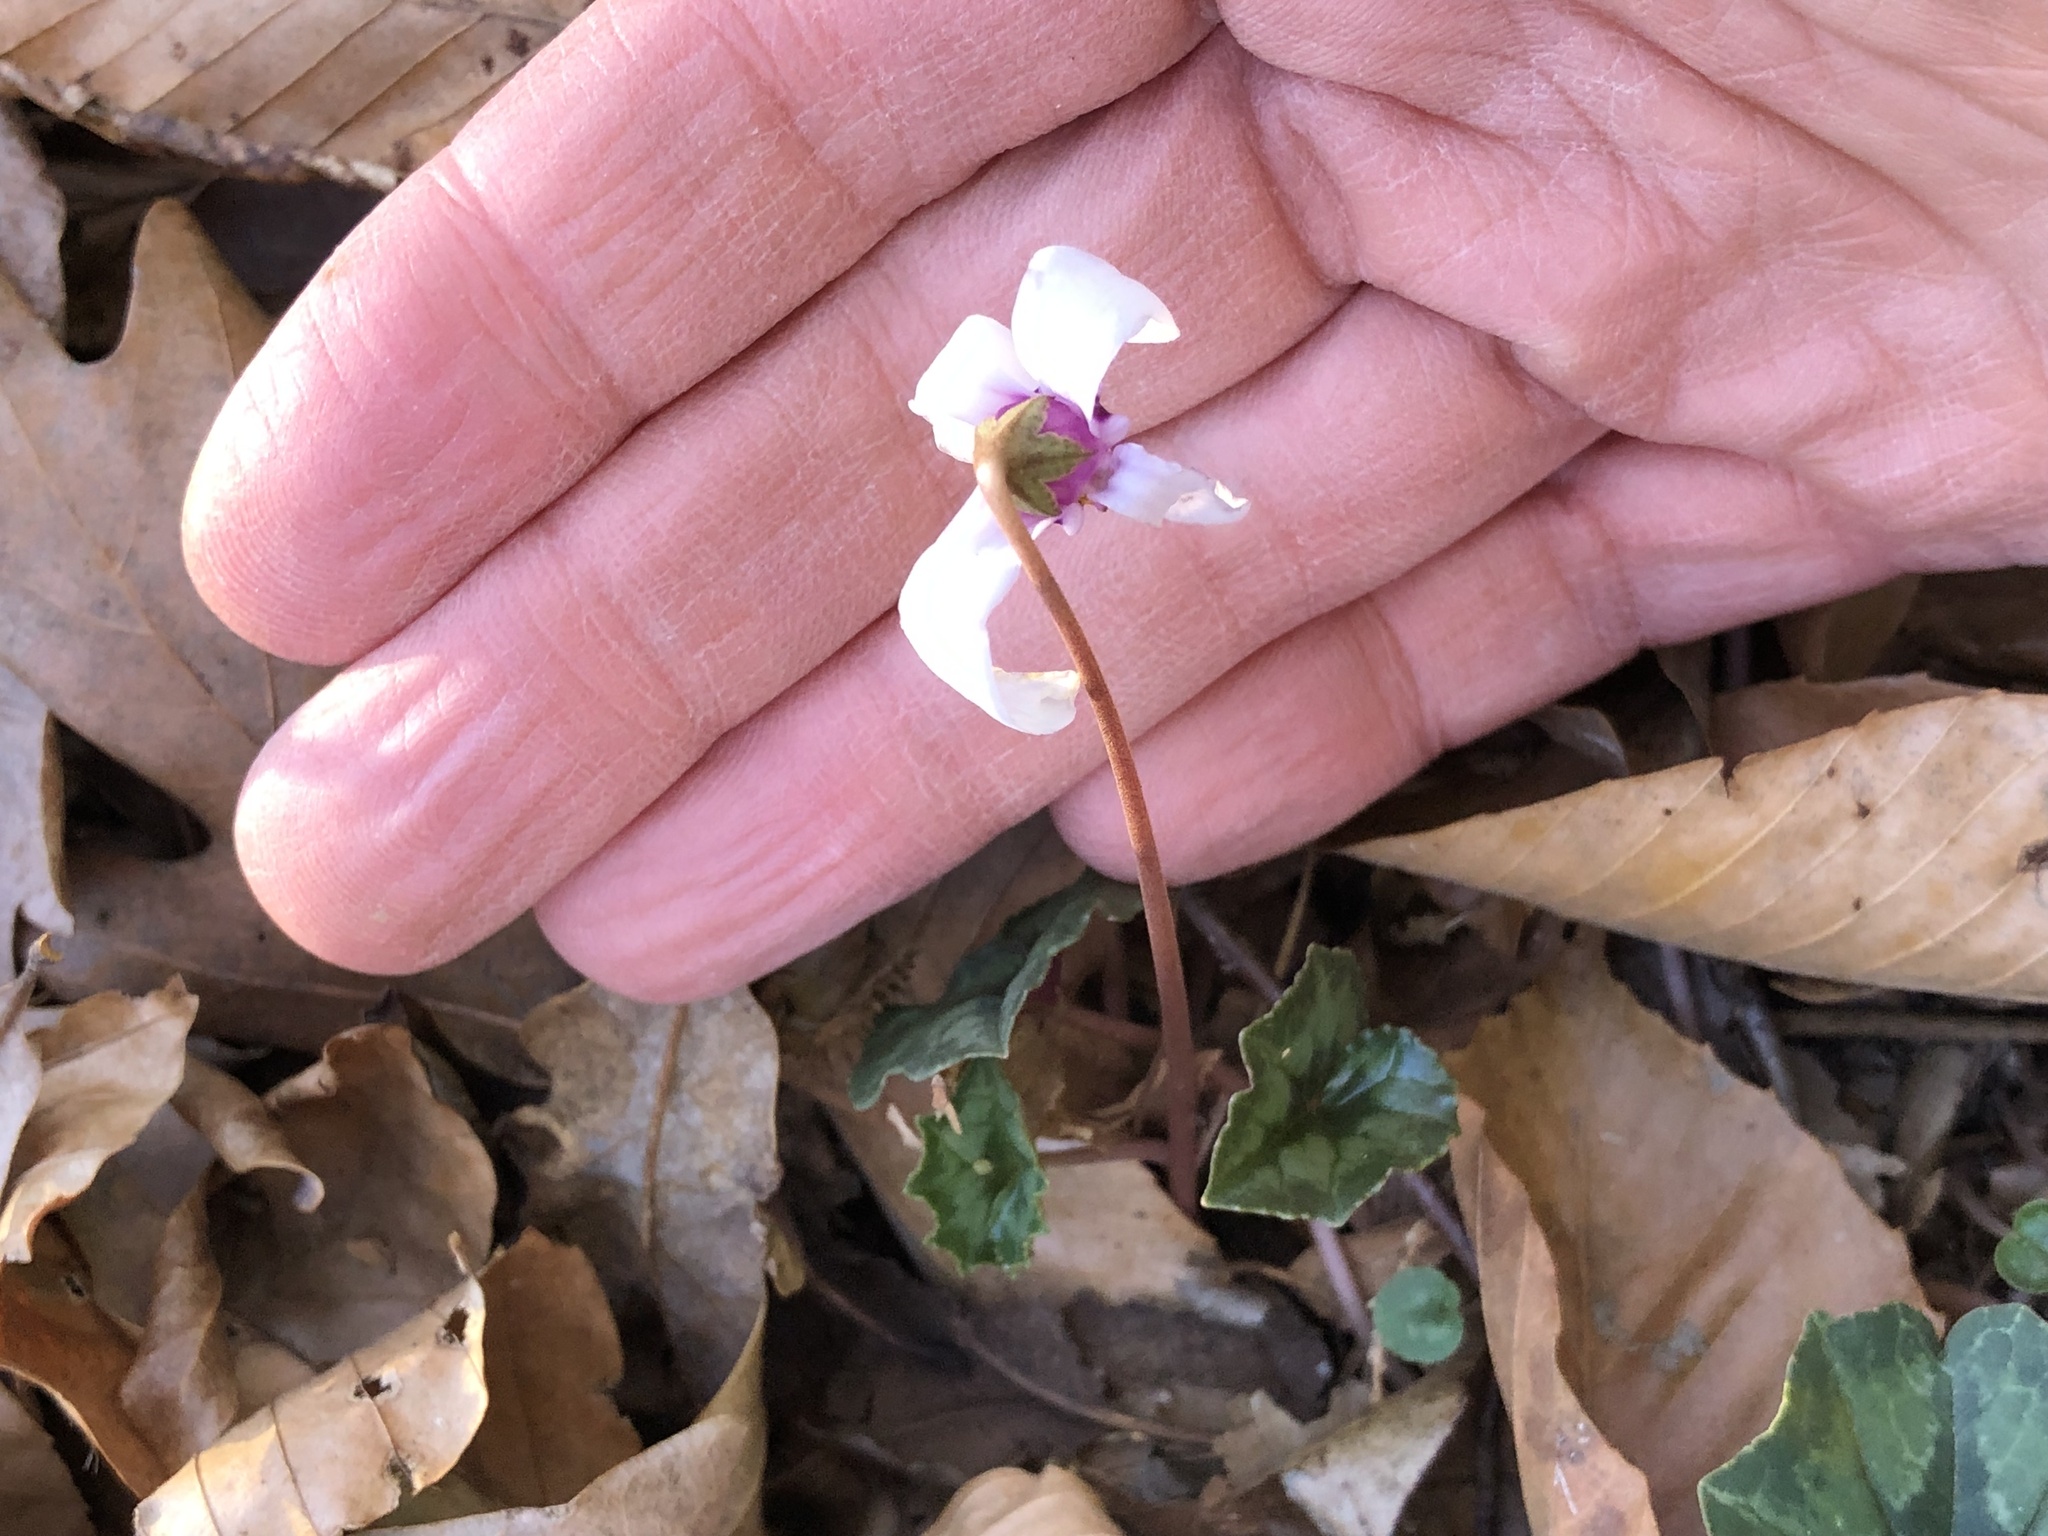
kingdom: Plantae
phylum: Tracheophyta
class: Magnoliopsida
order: Ericales
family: Primulaceae
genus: Cyclamen
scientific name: Cyclamen hederifolium
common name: Sowbread
